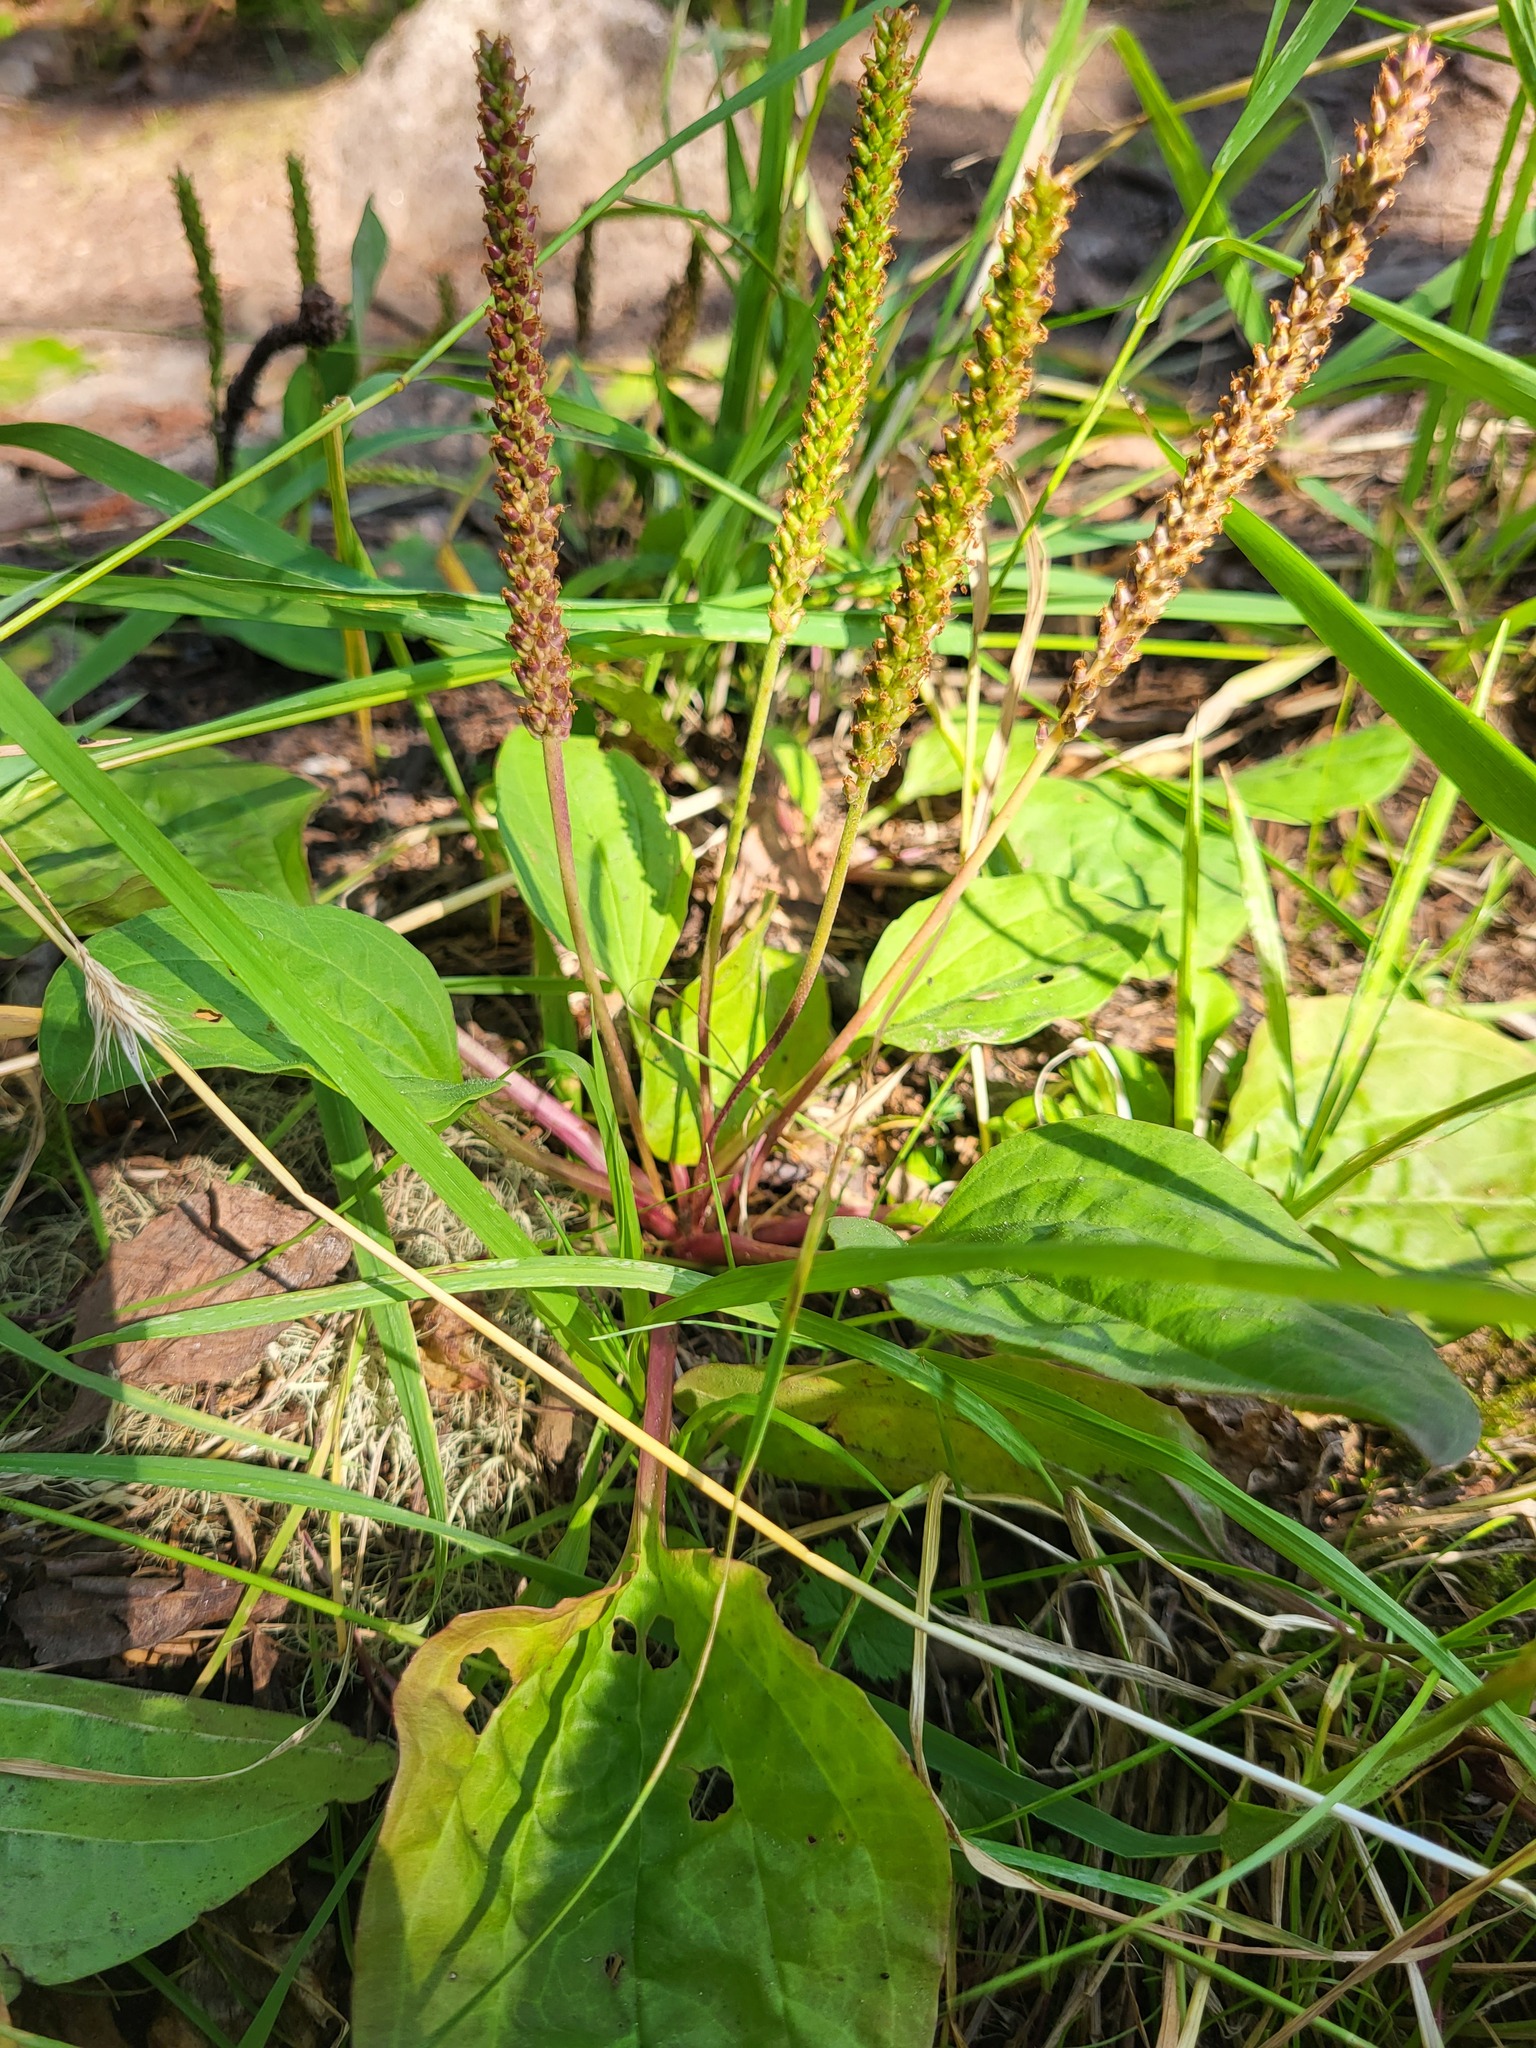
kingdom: Plantae
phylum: Tracheophyta
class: Magnoliopsida
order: Lamiales
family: Plantaginaceae
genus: Plantago
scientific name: Plantago major
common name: Common plantain
